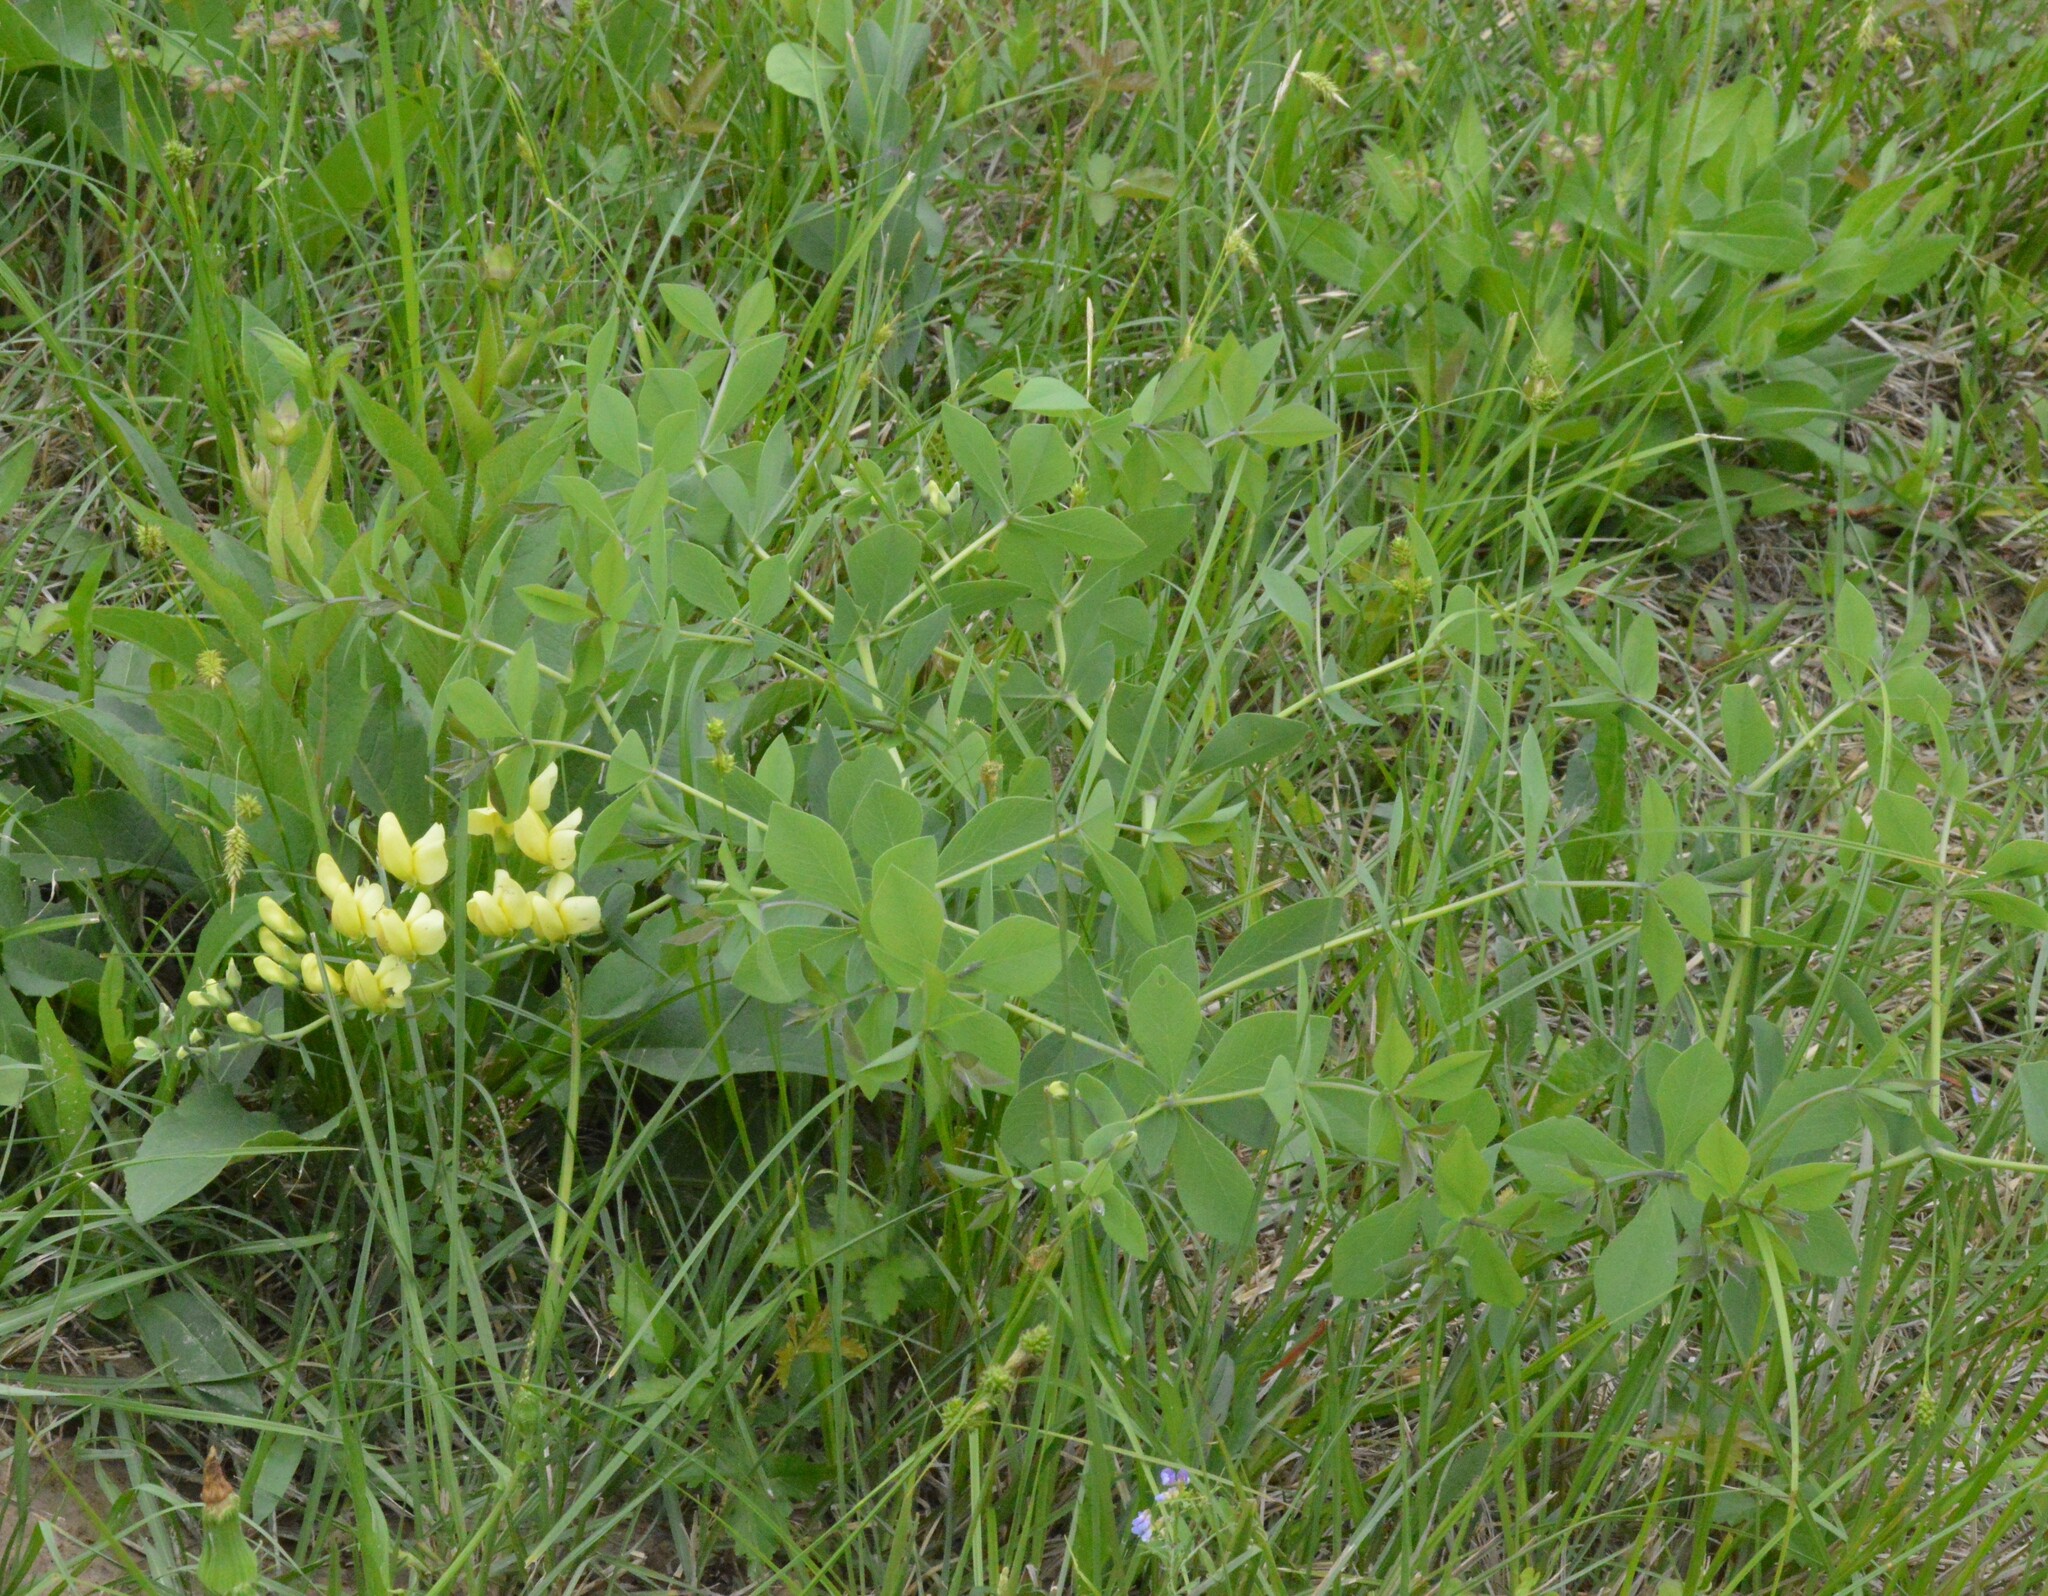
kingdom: Plantae
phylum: Tracheophyta
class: Magnoliopsida
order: Fabales
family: Fabaceae
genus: Baptisia
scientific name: Baptisia bracteata
